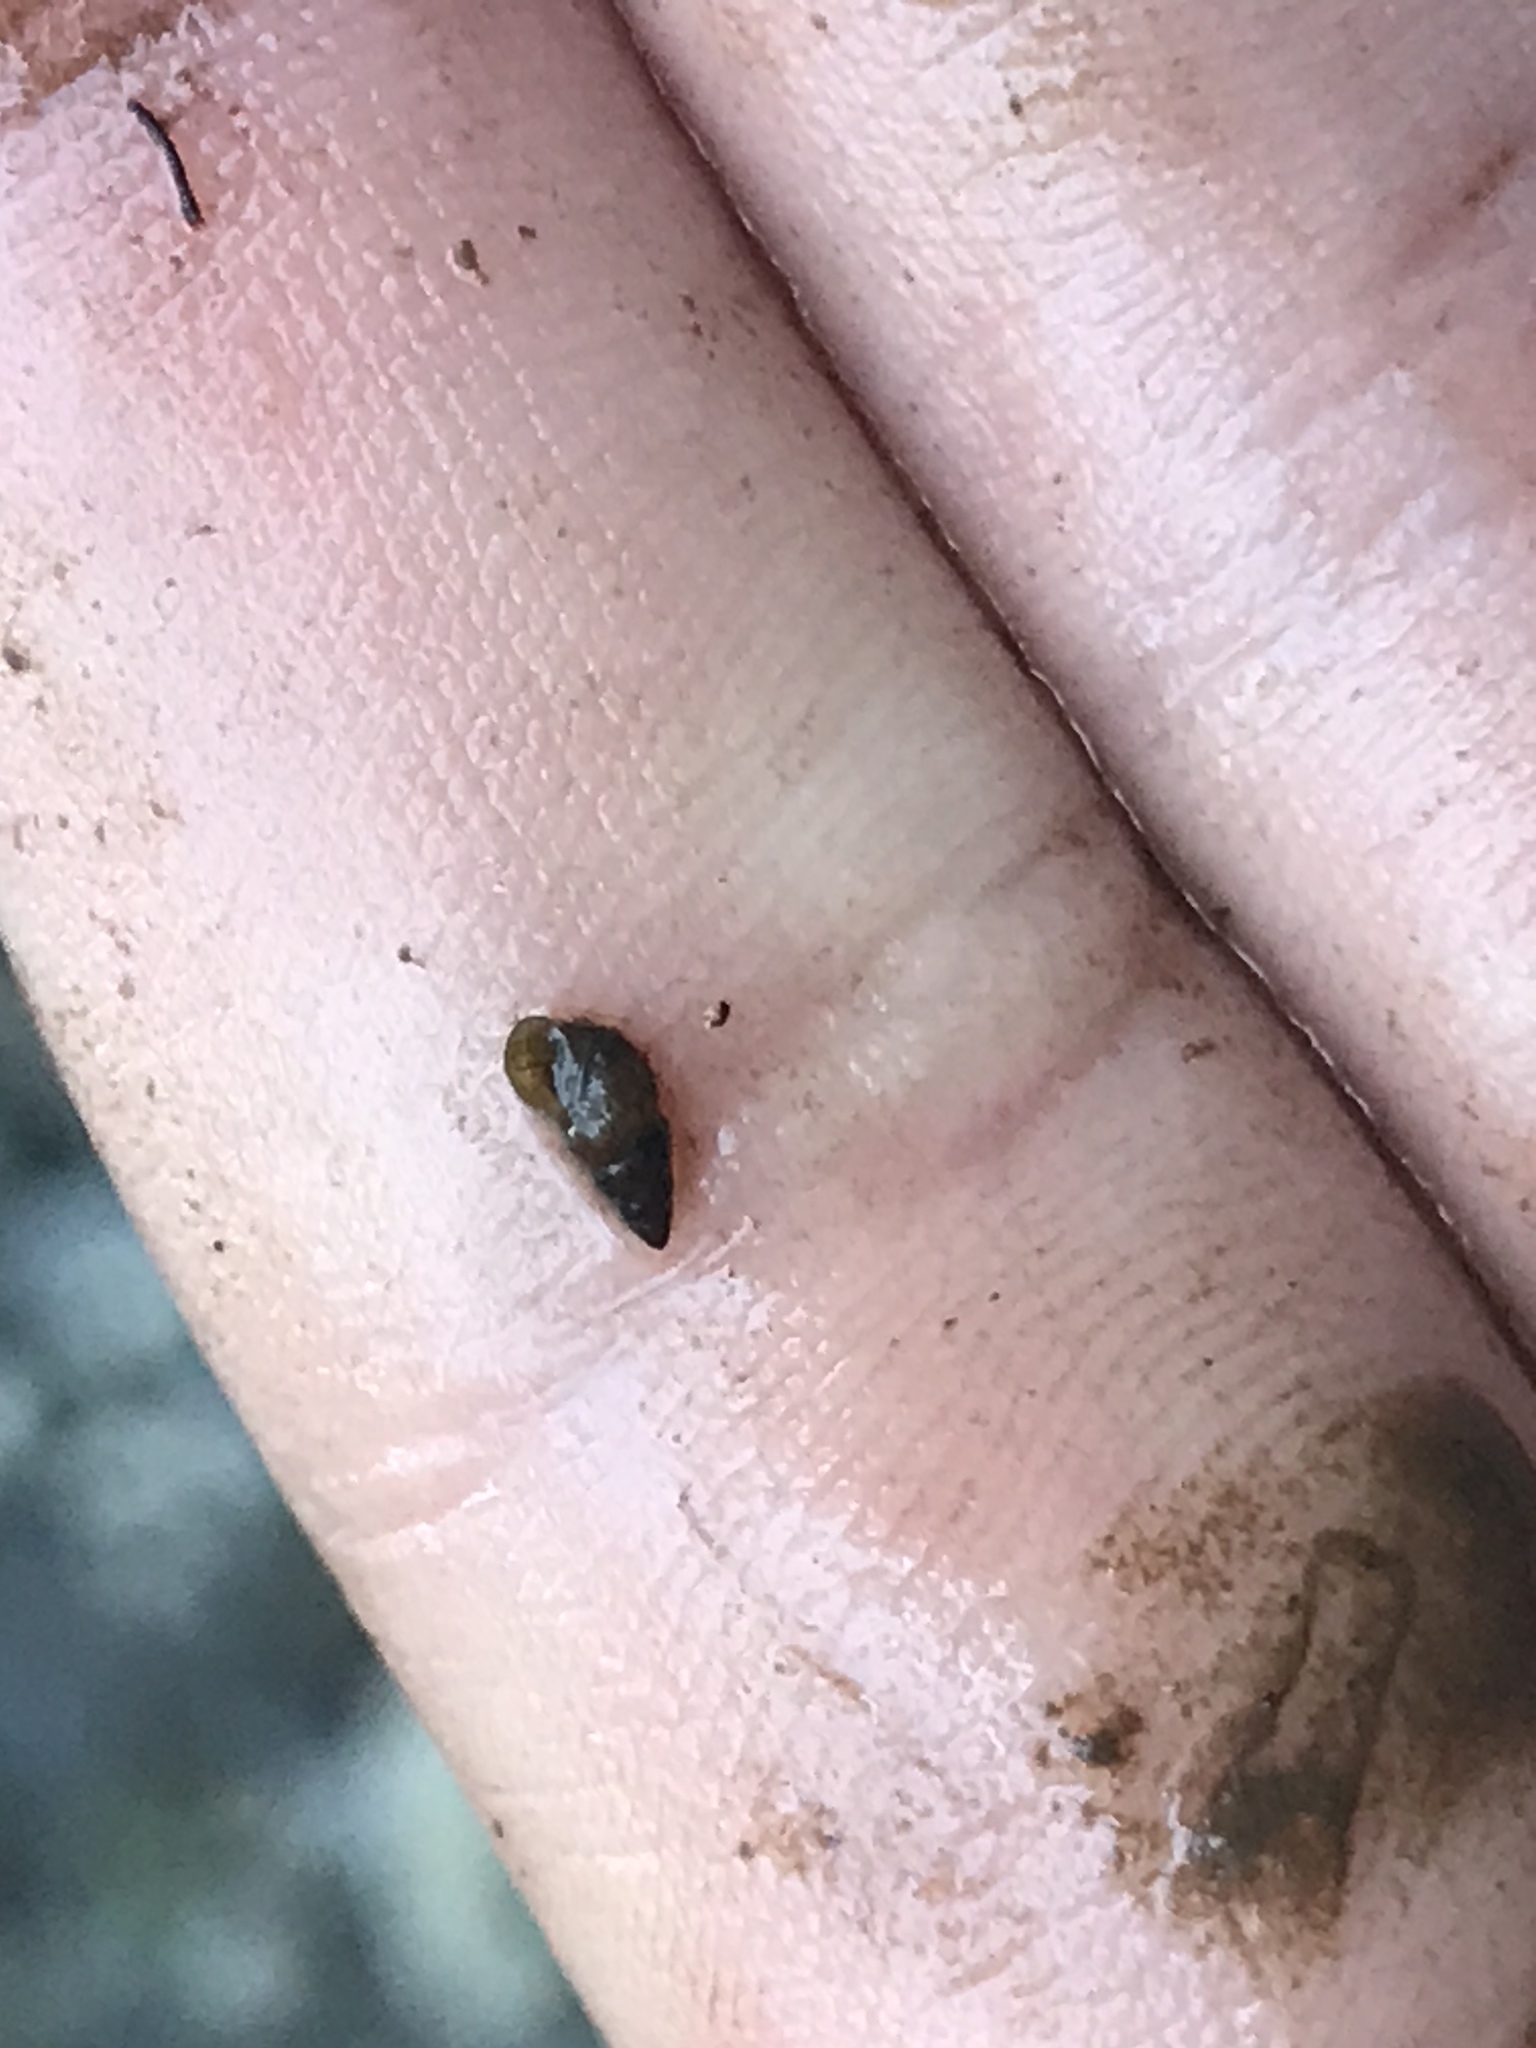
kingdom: Animalia
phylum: Mollusca
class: Gastropoda
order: Littorinimorpha
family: Tateidae
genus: Potamopyrgus
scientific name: Potamopyrgus antipodarum
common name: Jenkins' spire snail
